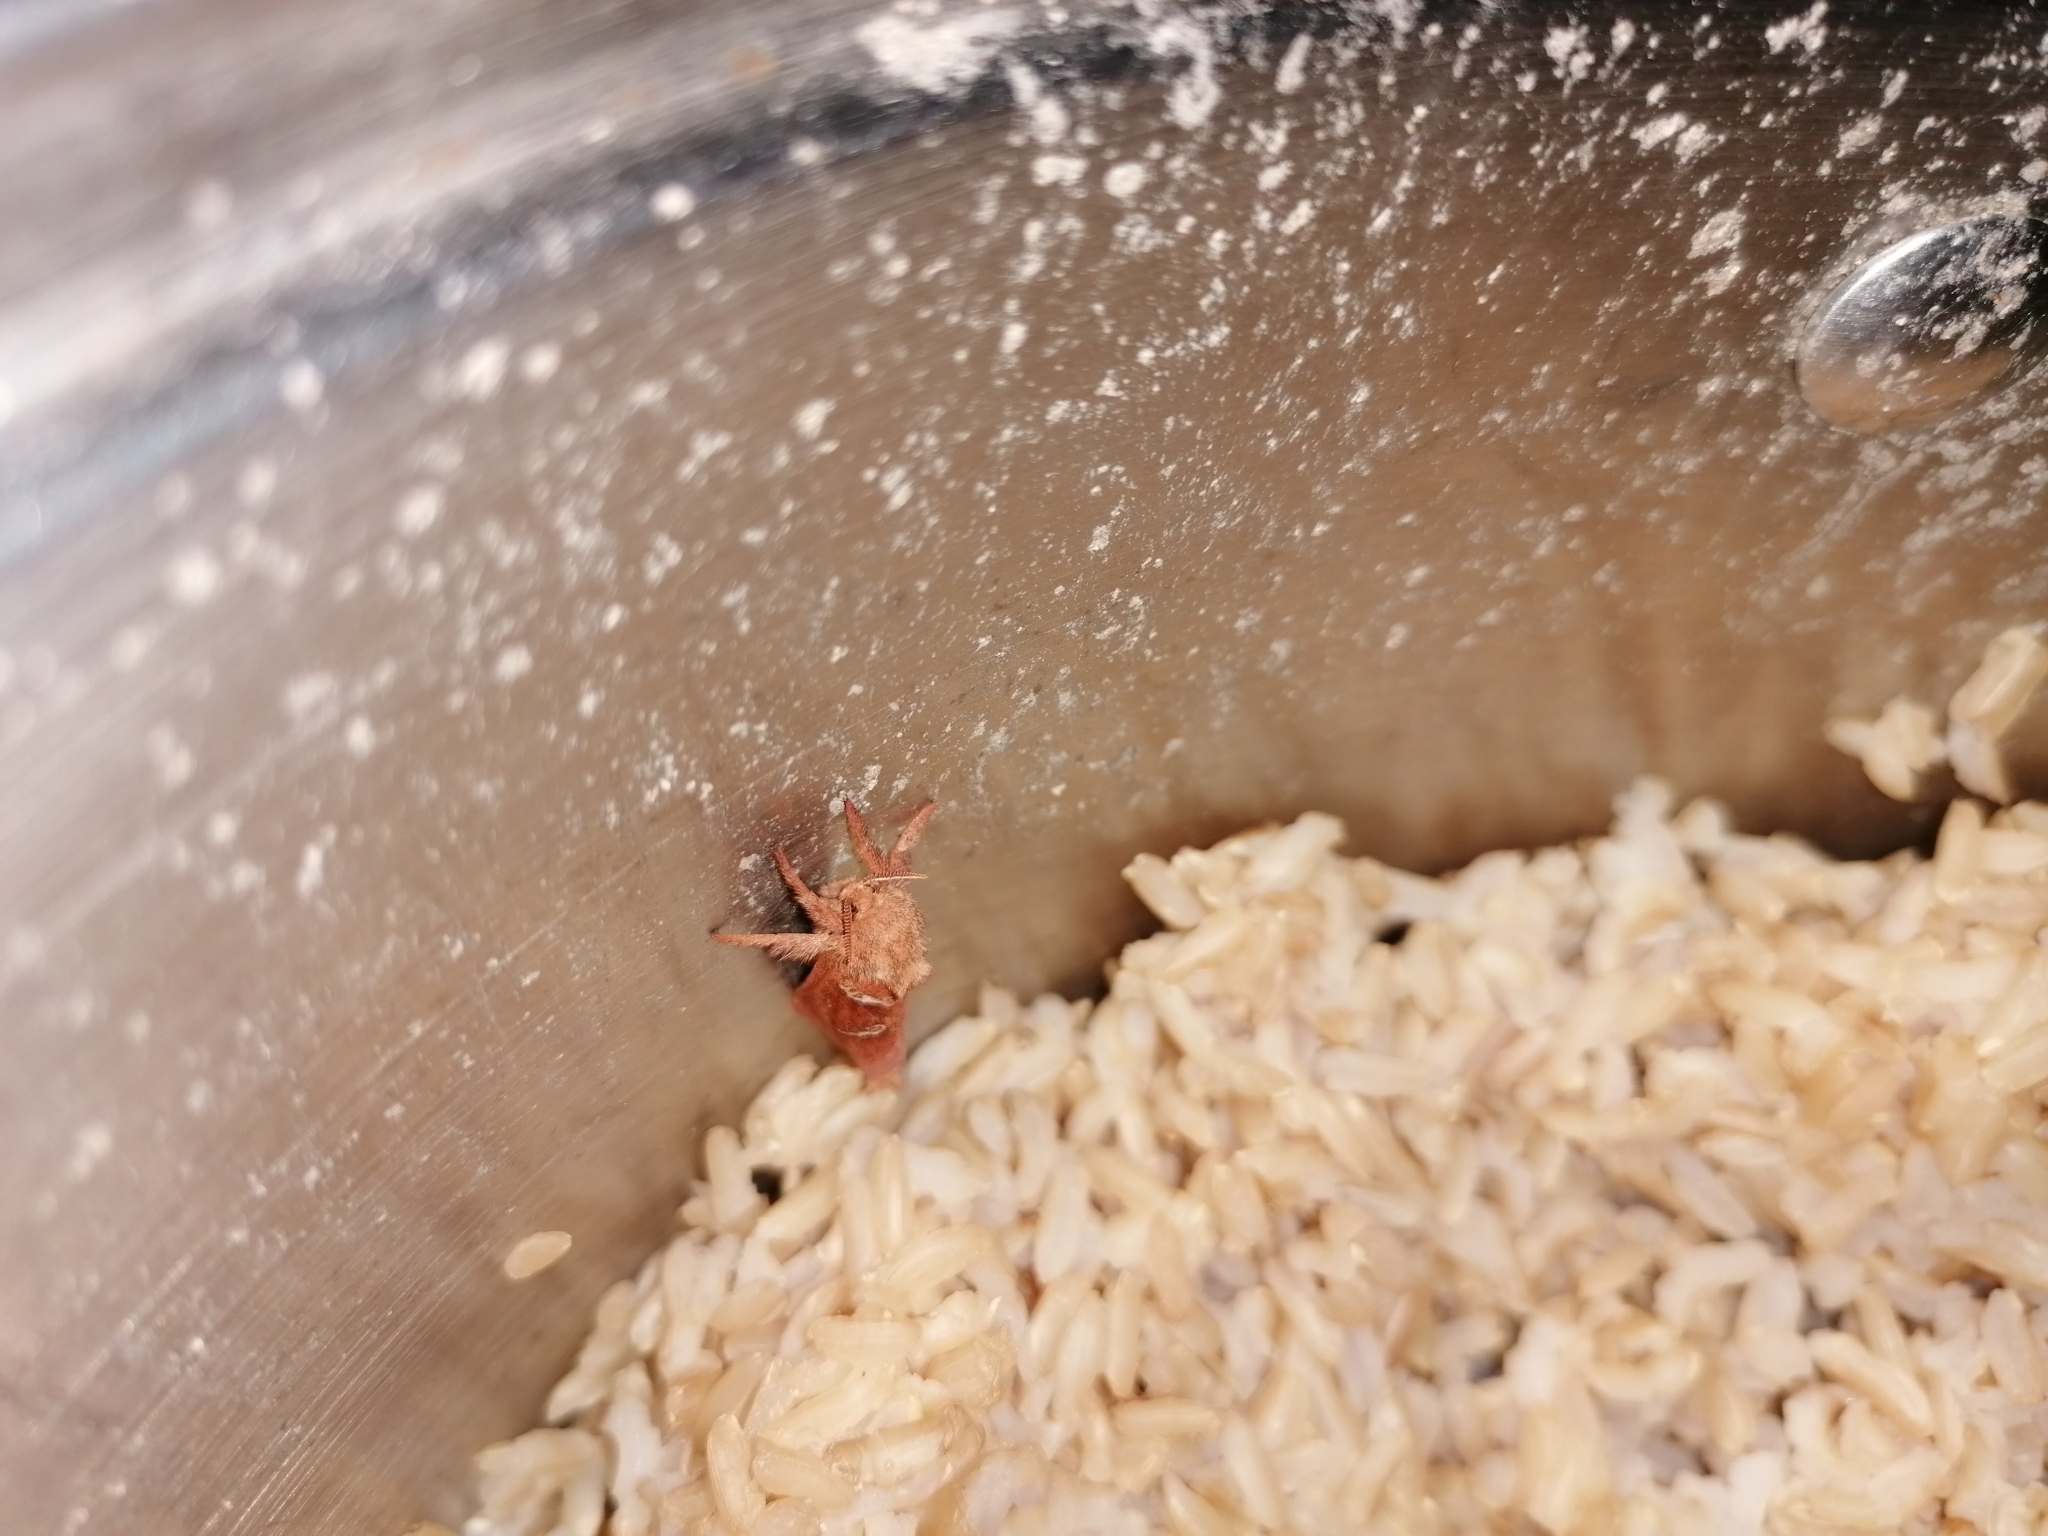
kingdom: Animalia
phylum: Arthropoda
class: Insecta
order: Lepidoptera
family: Hepialidae
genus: Triodia
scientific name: Triodia sylvina
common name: Orange swift
